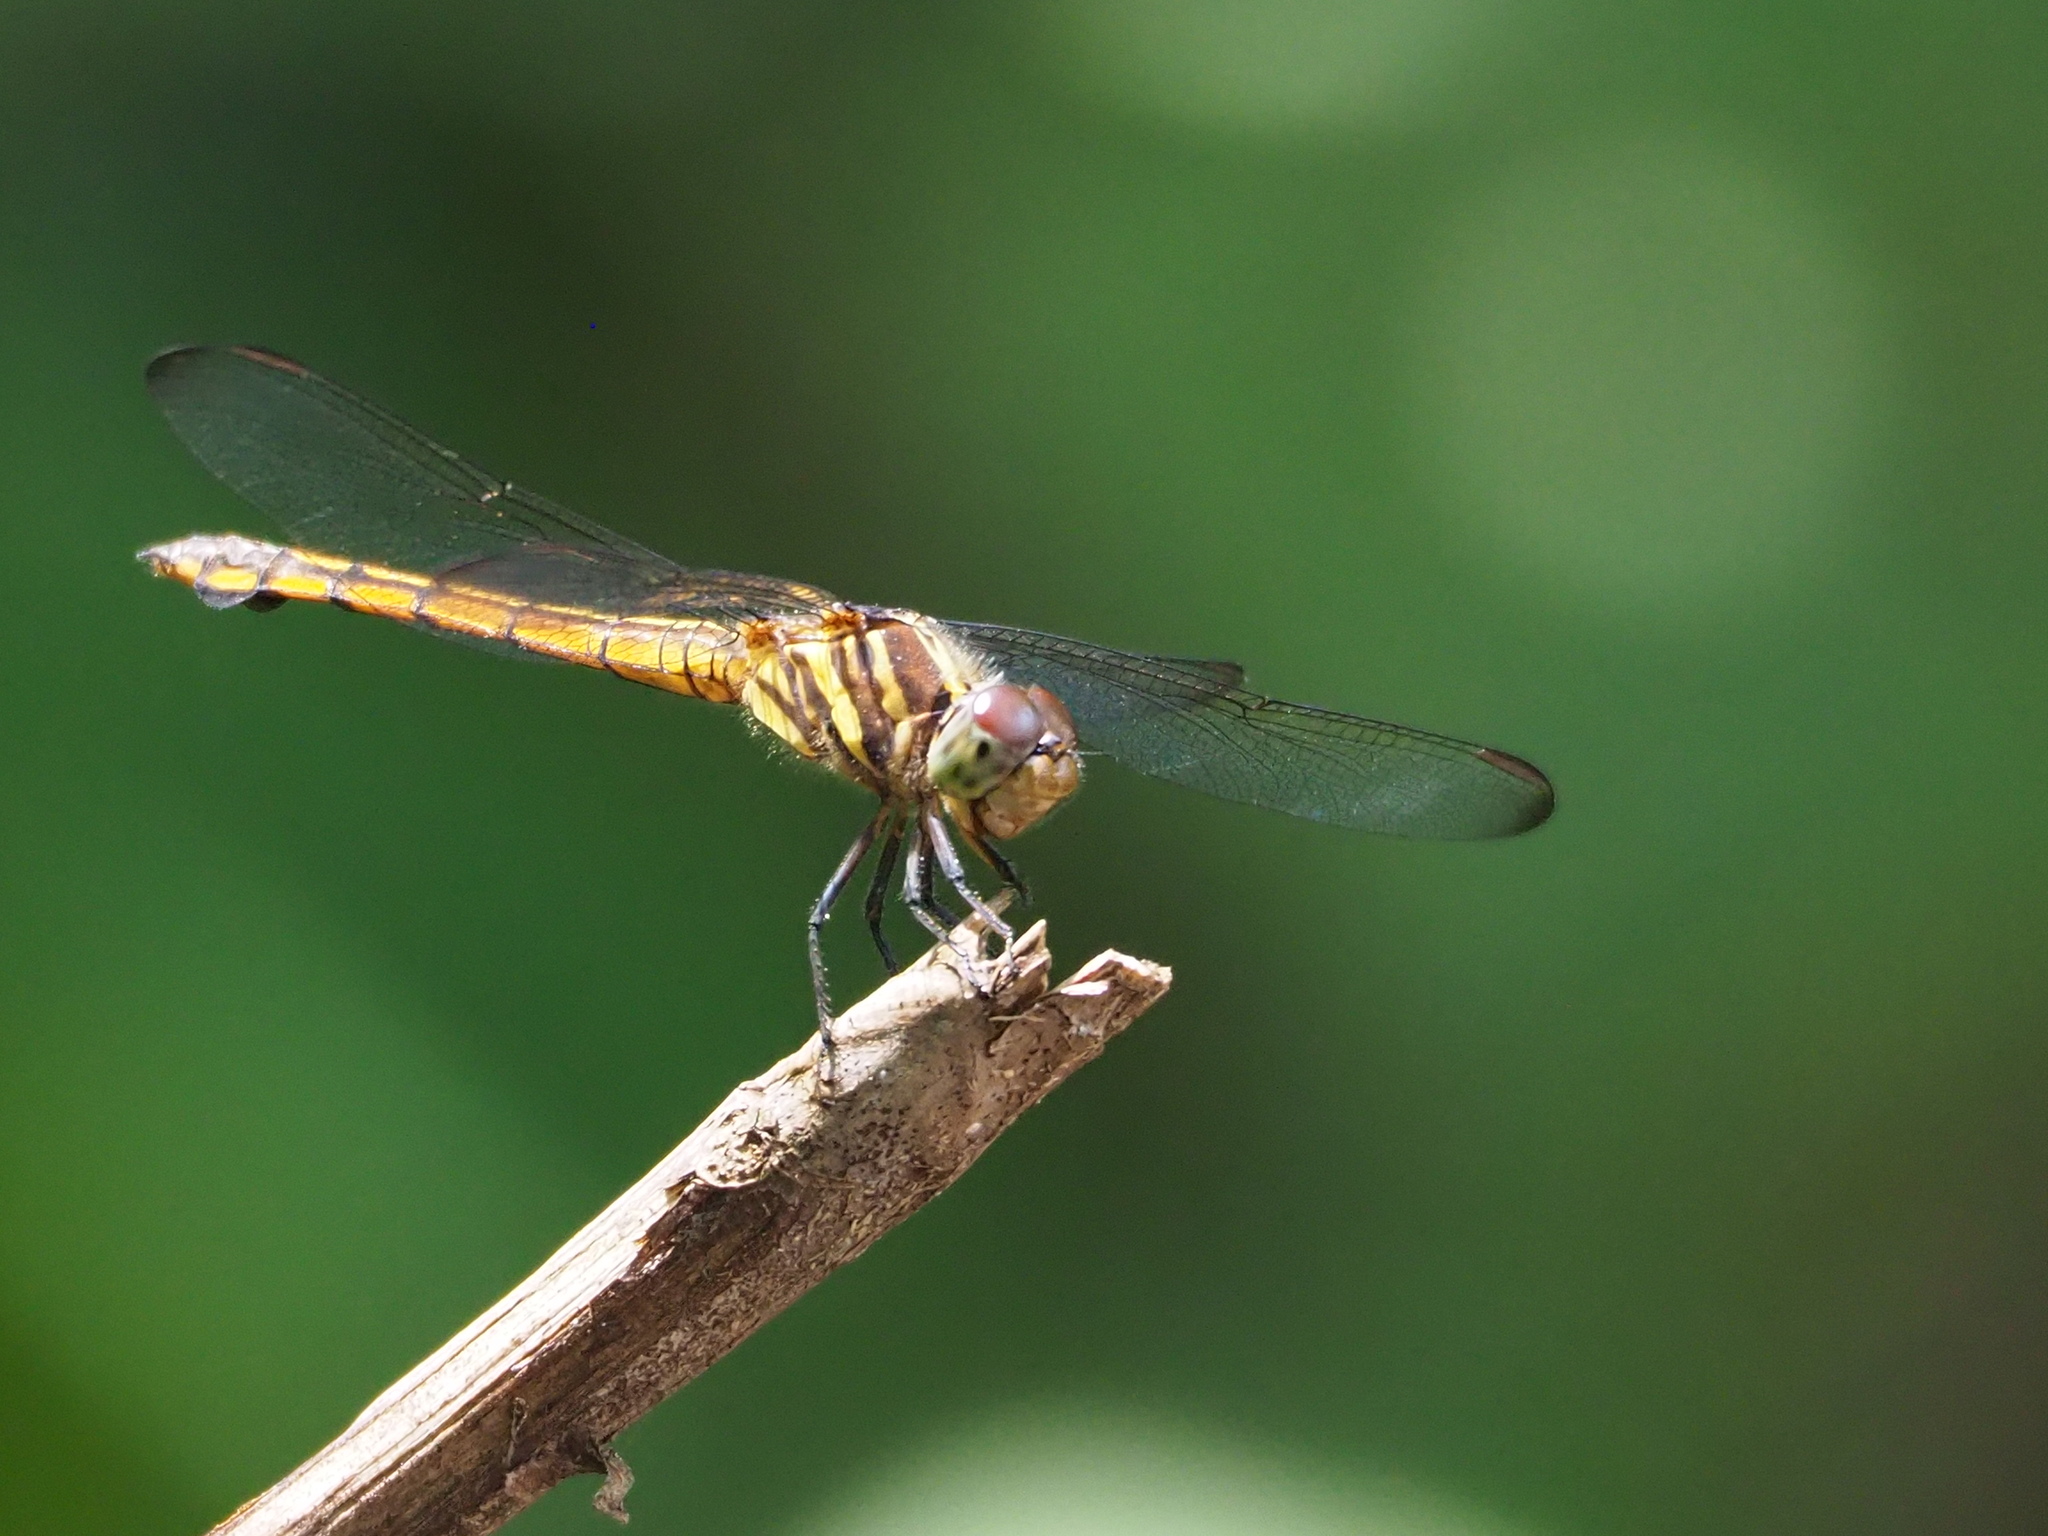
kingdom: Animalia
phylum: Arthropoda
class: Insecta
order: Odonata
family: Libellulidae
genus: Potamarcha
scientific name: Potamarcha congener
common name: Blue chaser
